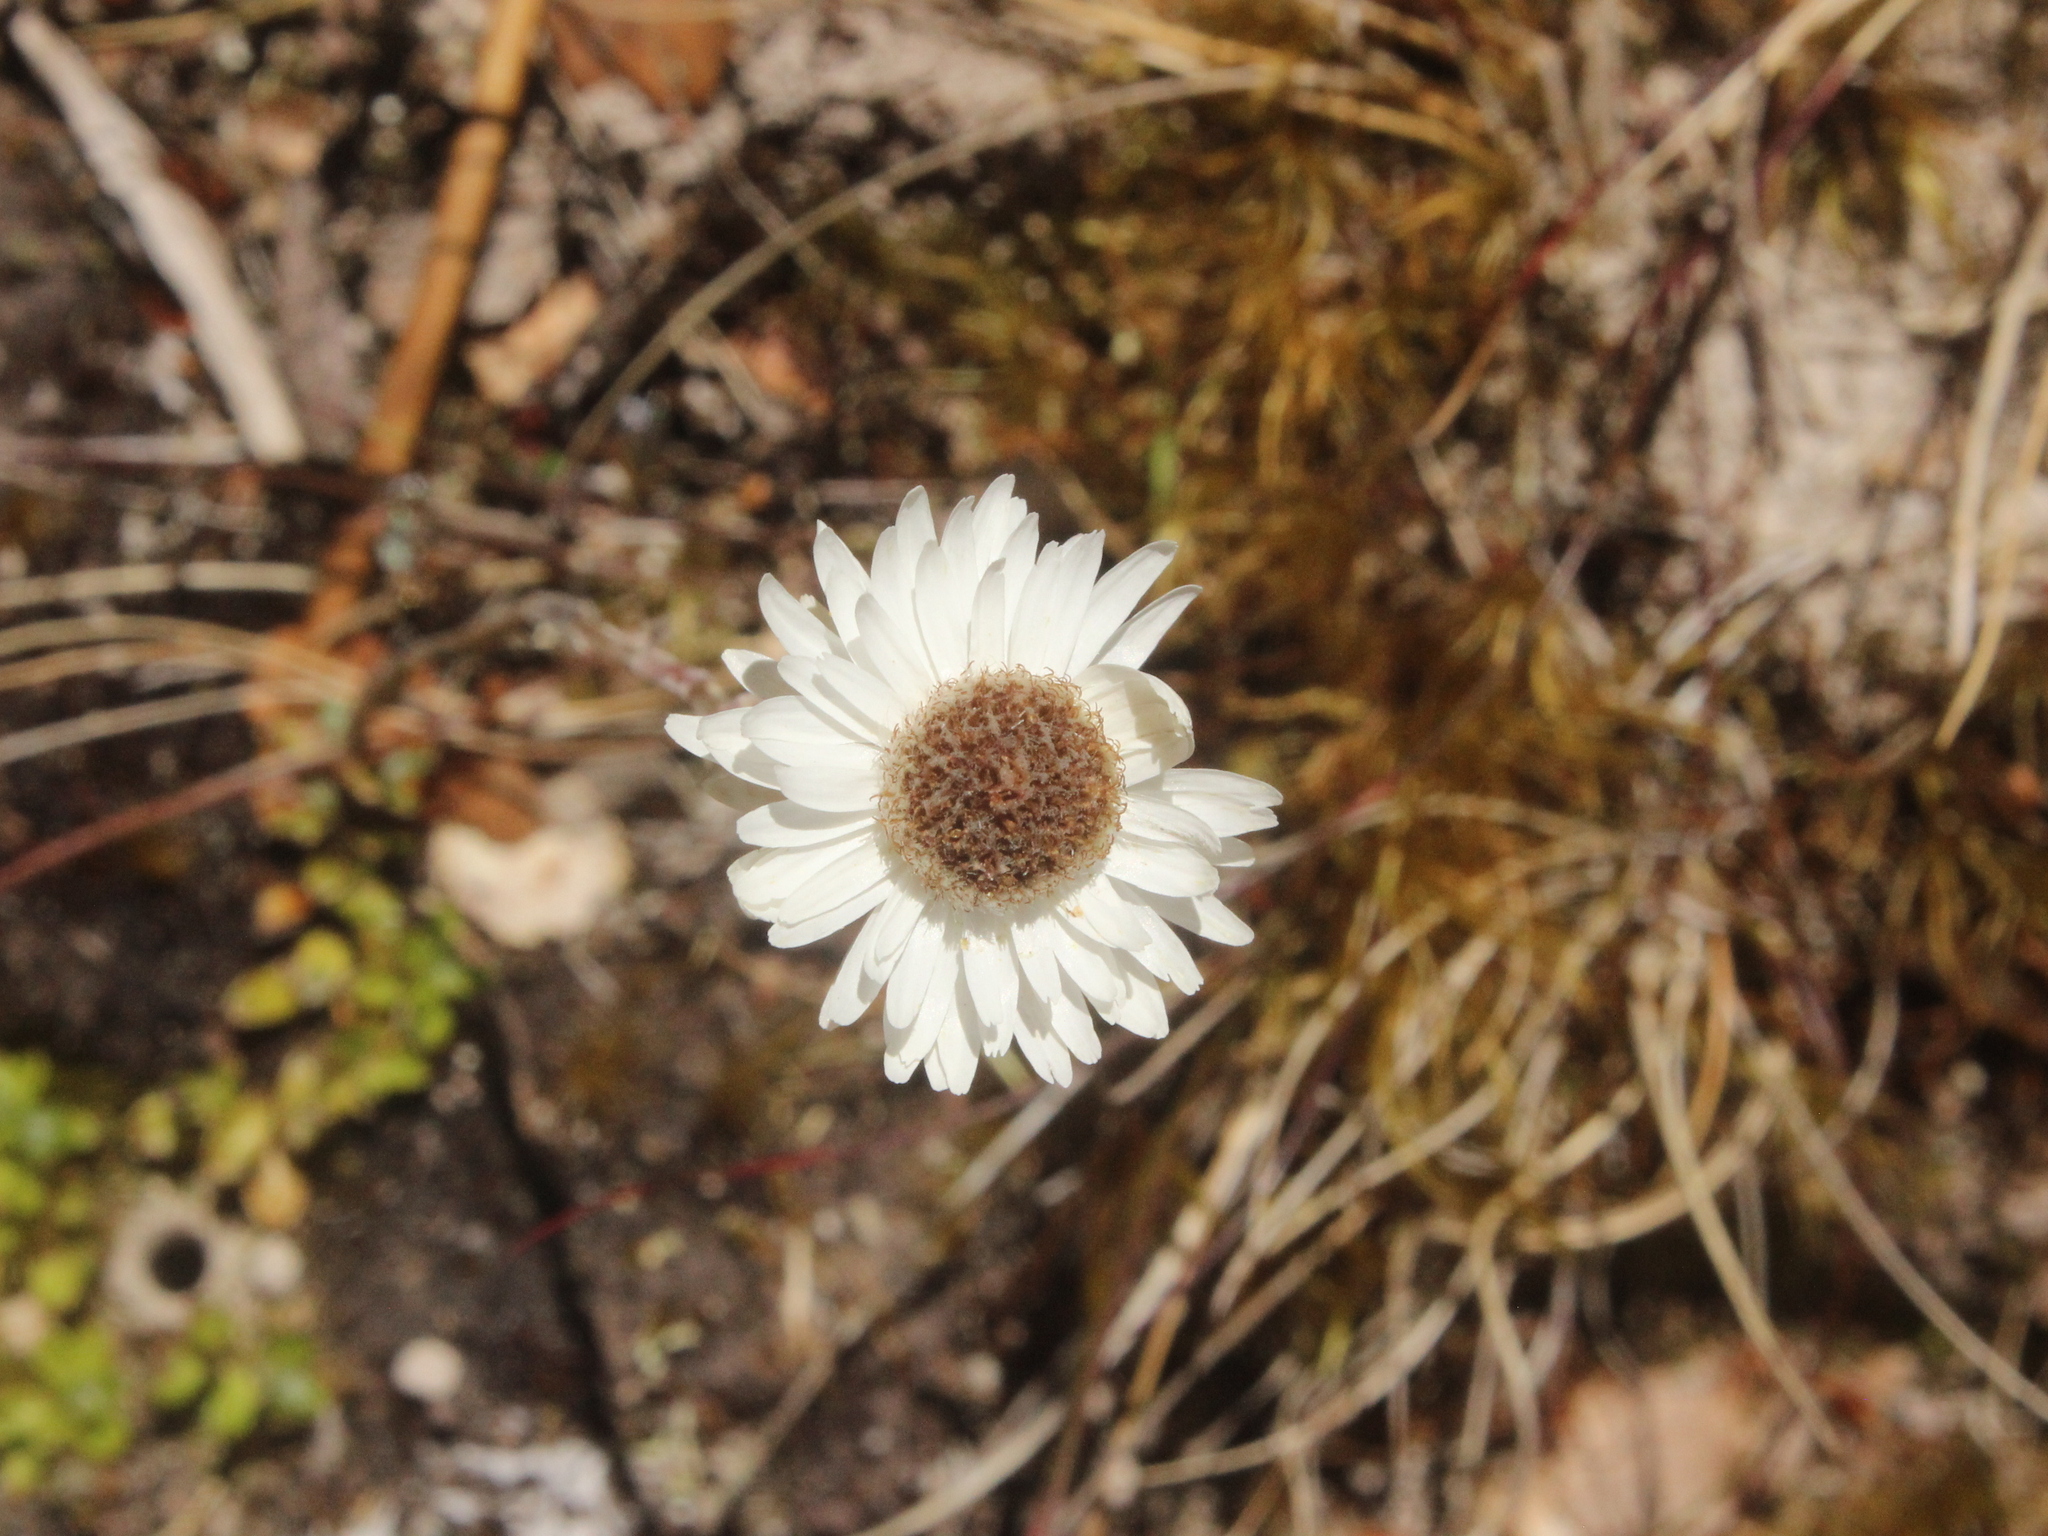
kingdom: Plantae
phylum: Tracheophyta
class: Magnoliopsida
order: Asterales
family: Asteraceae
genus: Anaphalioides
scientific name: Anaphalioides bellidioides
